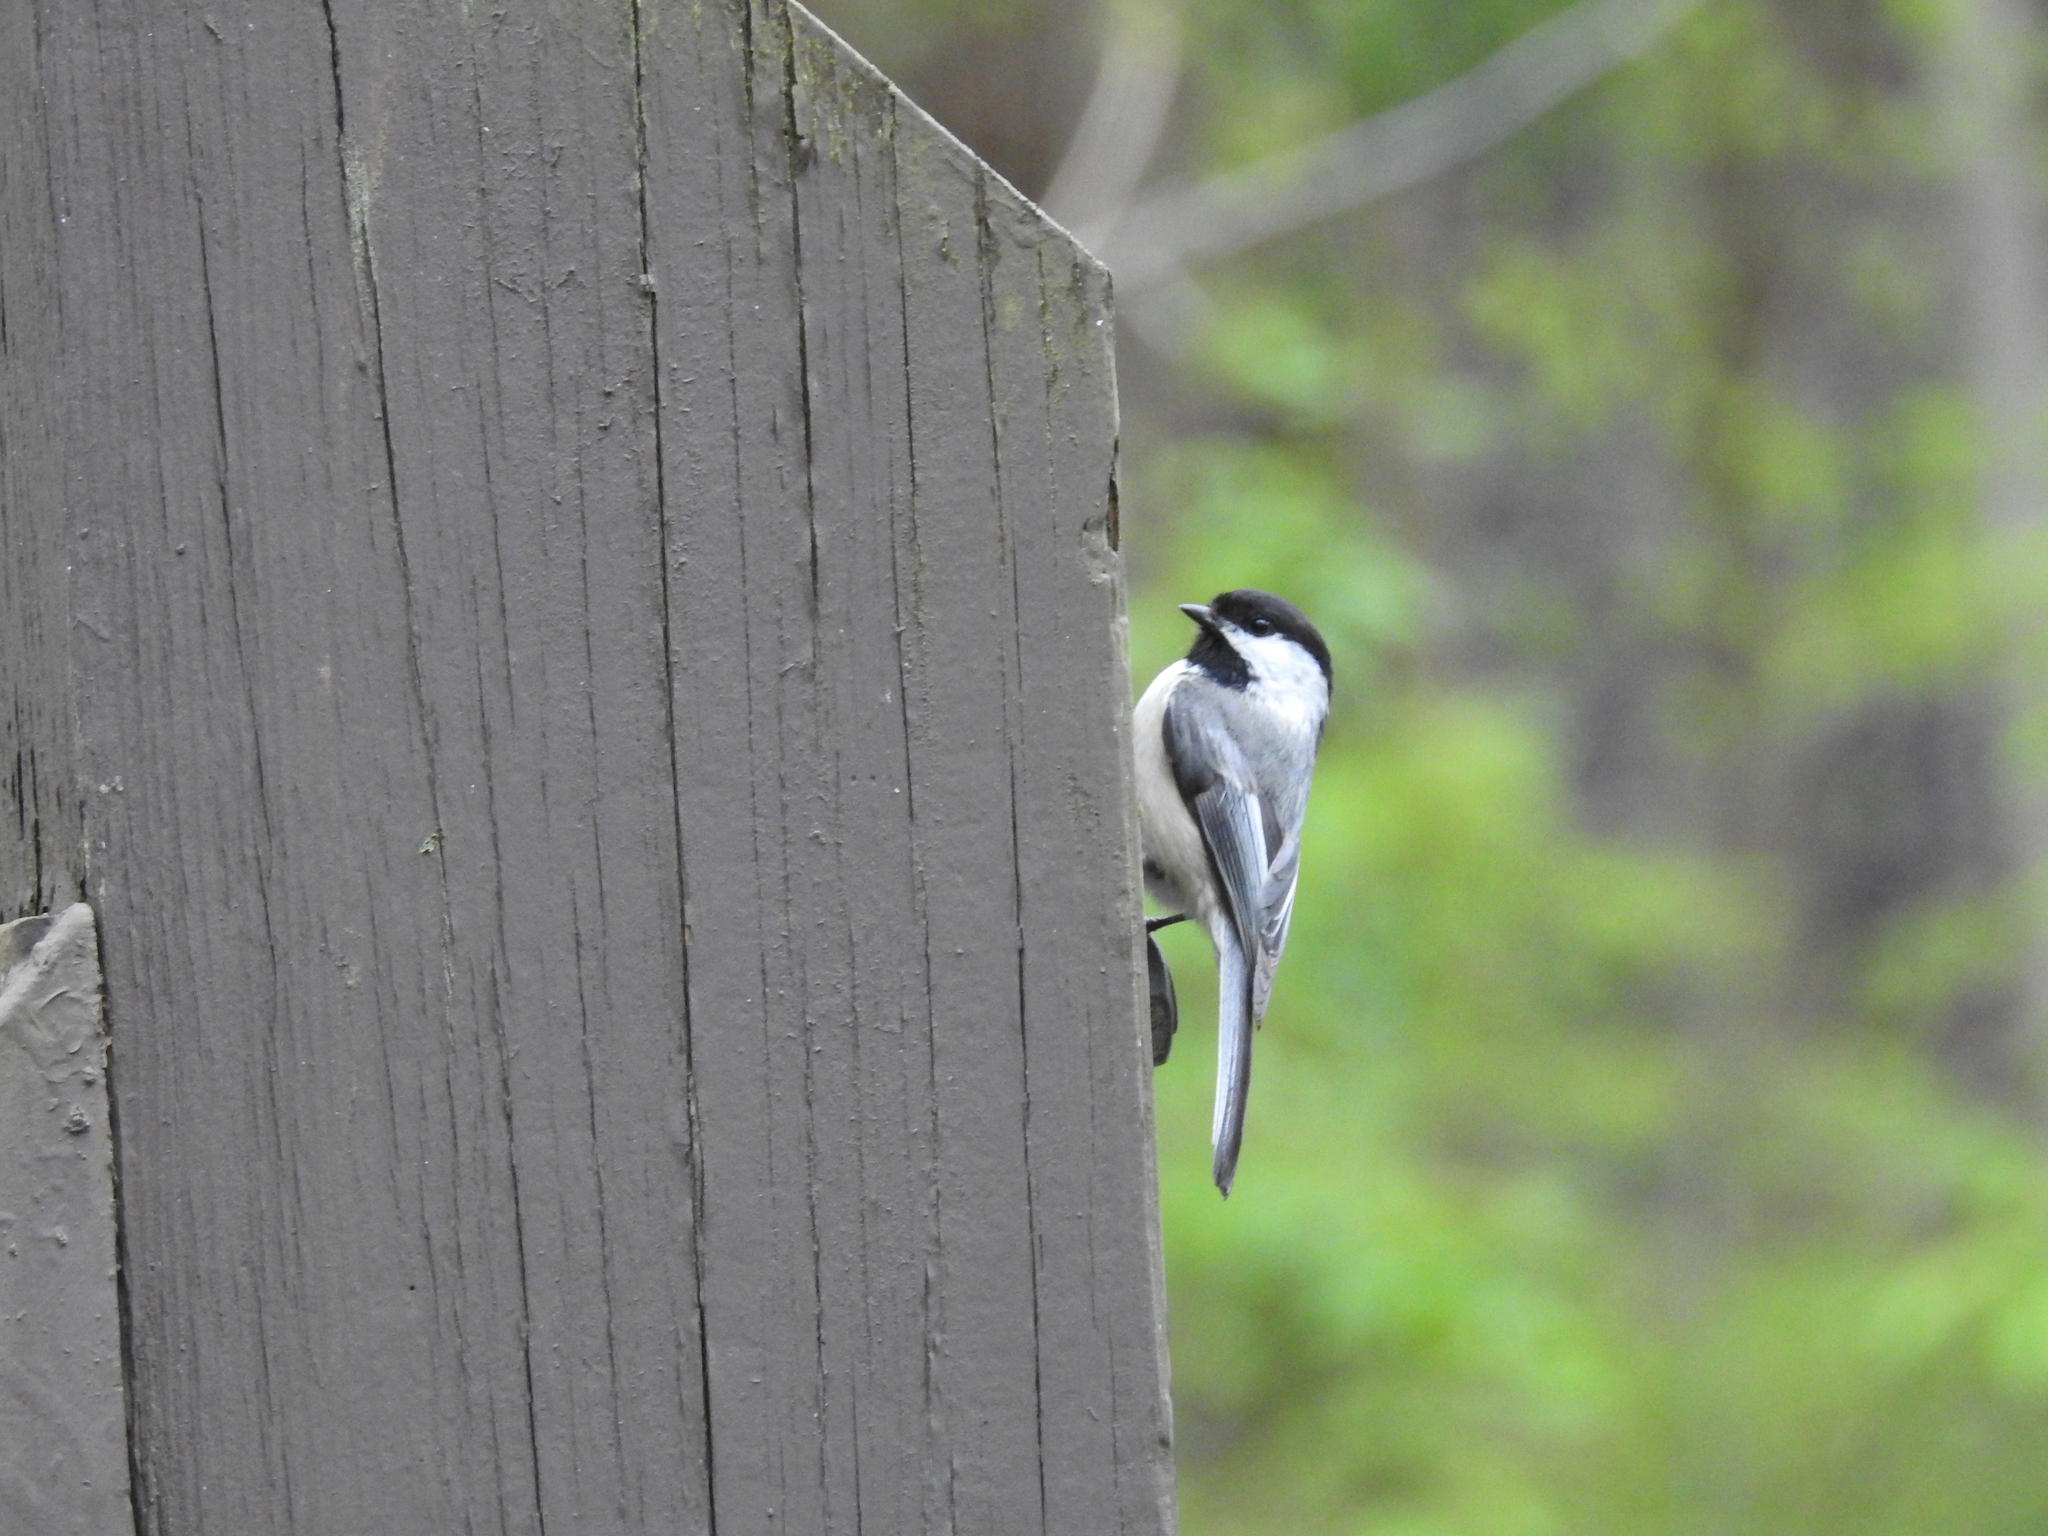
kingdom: Animalia
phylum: Chordata
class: Aves
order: Passeriformes
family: Paridae
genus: Poecile
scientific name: Poecile atricapillus
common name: Black-capped chickadee
